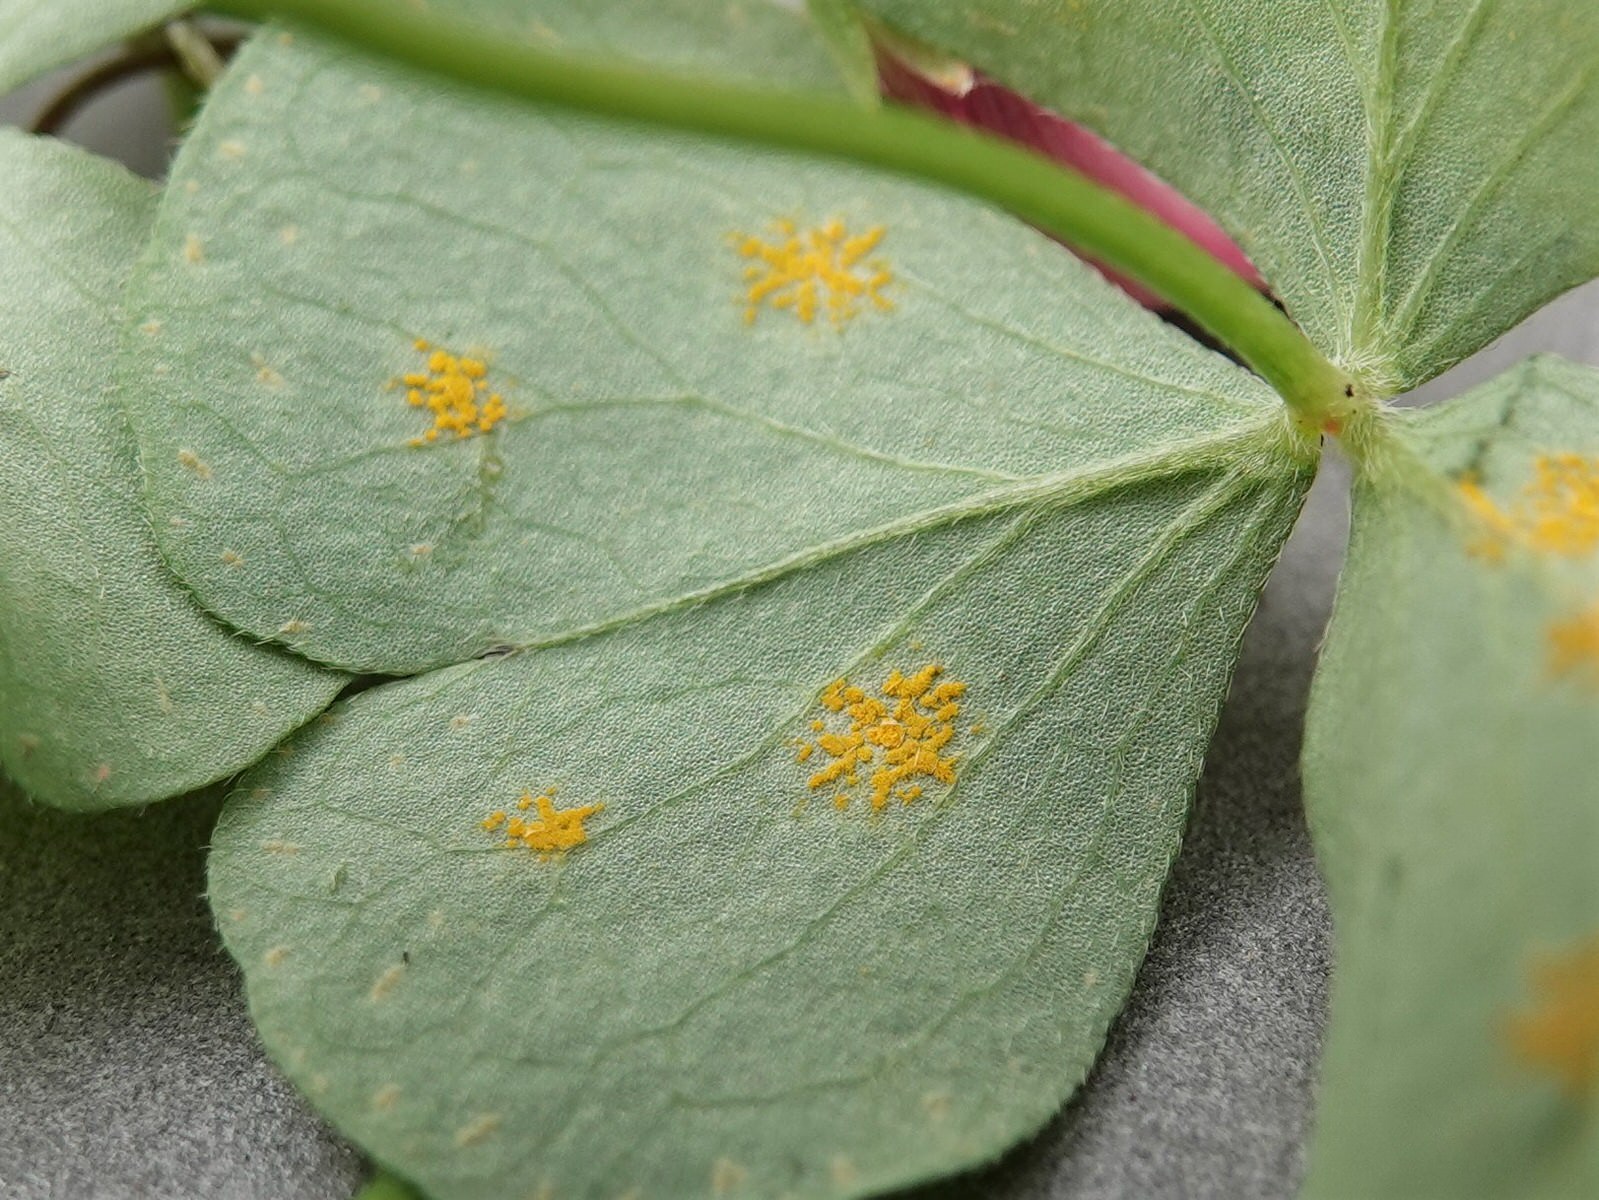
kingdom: Fungi
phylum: Basidiomycota
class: Pucciniomycetes
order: Pucciniales
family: Pucciniaceae
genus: Puccinia
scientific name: Puccinia oxalidis
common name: Oxalis rust
